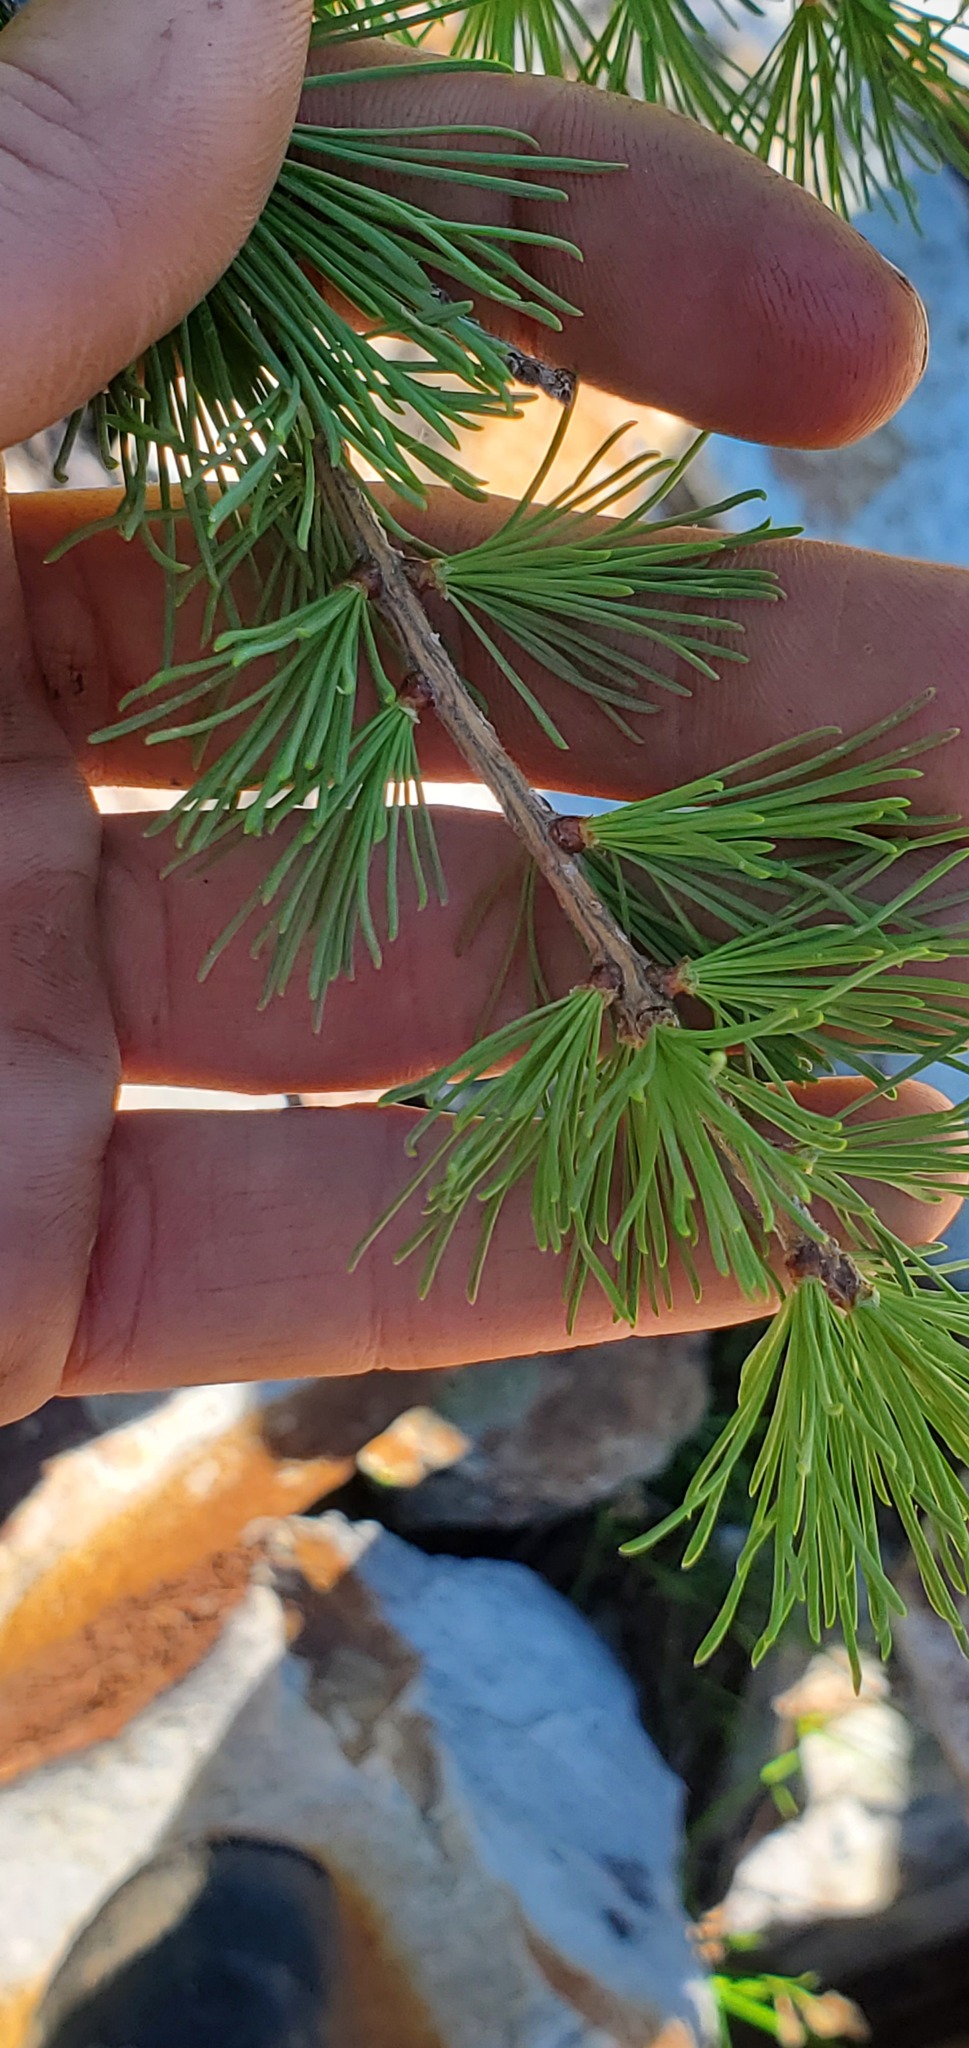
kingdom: Plantae
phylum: Tracheophyta
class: Pinopsida
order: Pinales
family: Pinaceae
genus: Larix
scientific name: Larix lyallii
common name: Alpine larch
